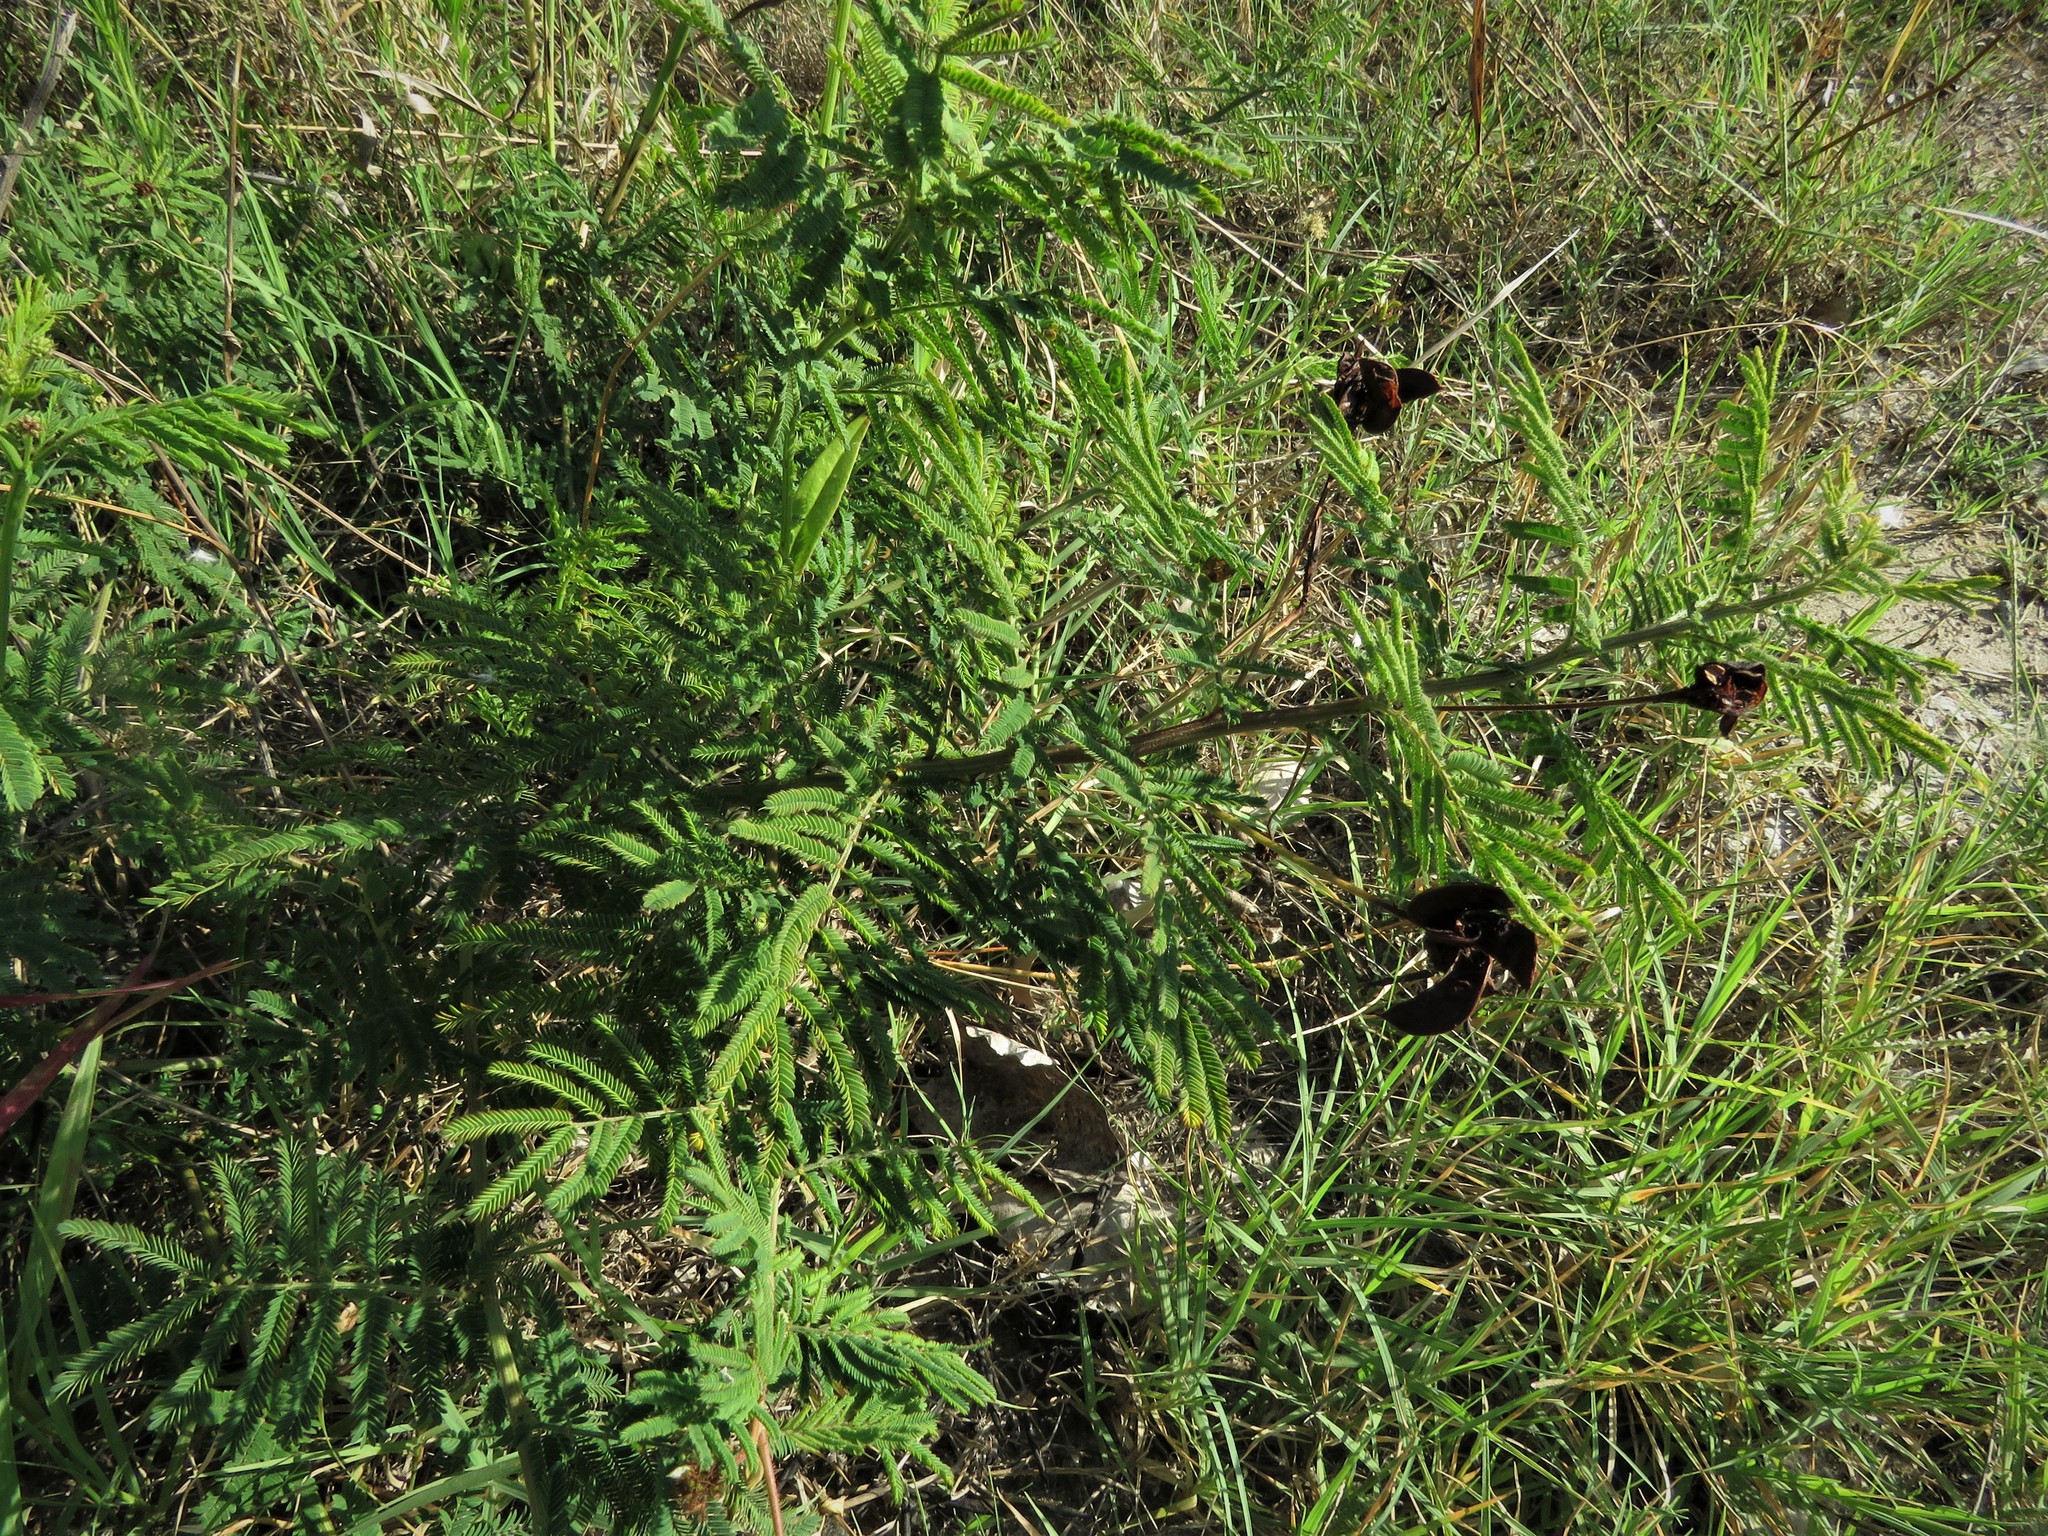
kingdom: Plantae
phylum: Tracheophyta
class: Magnoliopsida
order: Fabales
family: Fabaceae
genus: Desmanthus
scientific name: Desmanthus illinoensis
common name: Illinois bundle-flower
